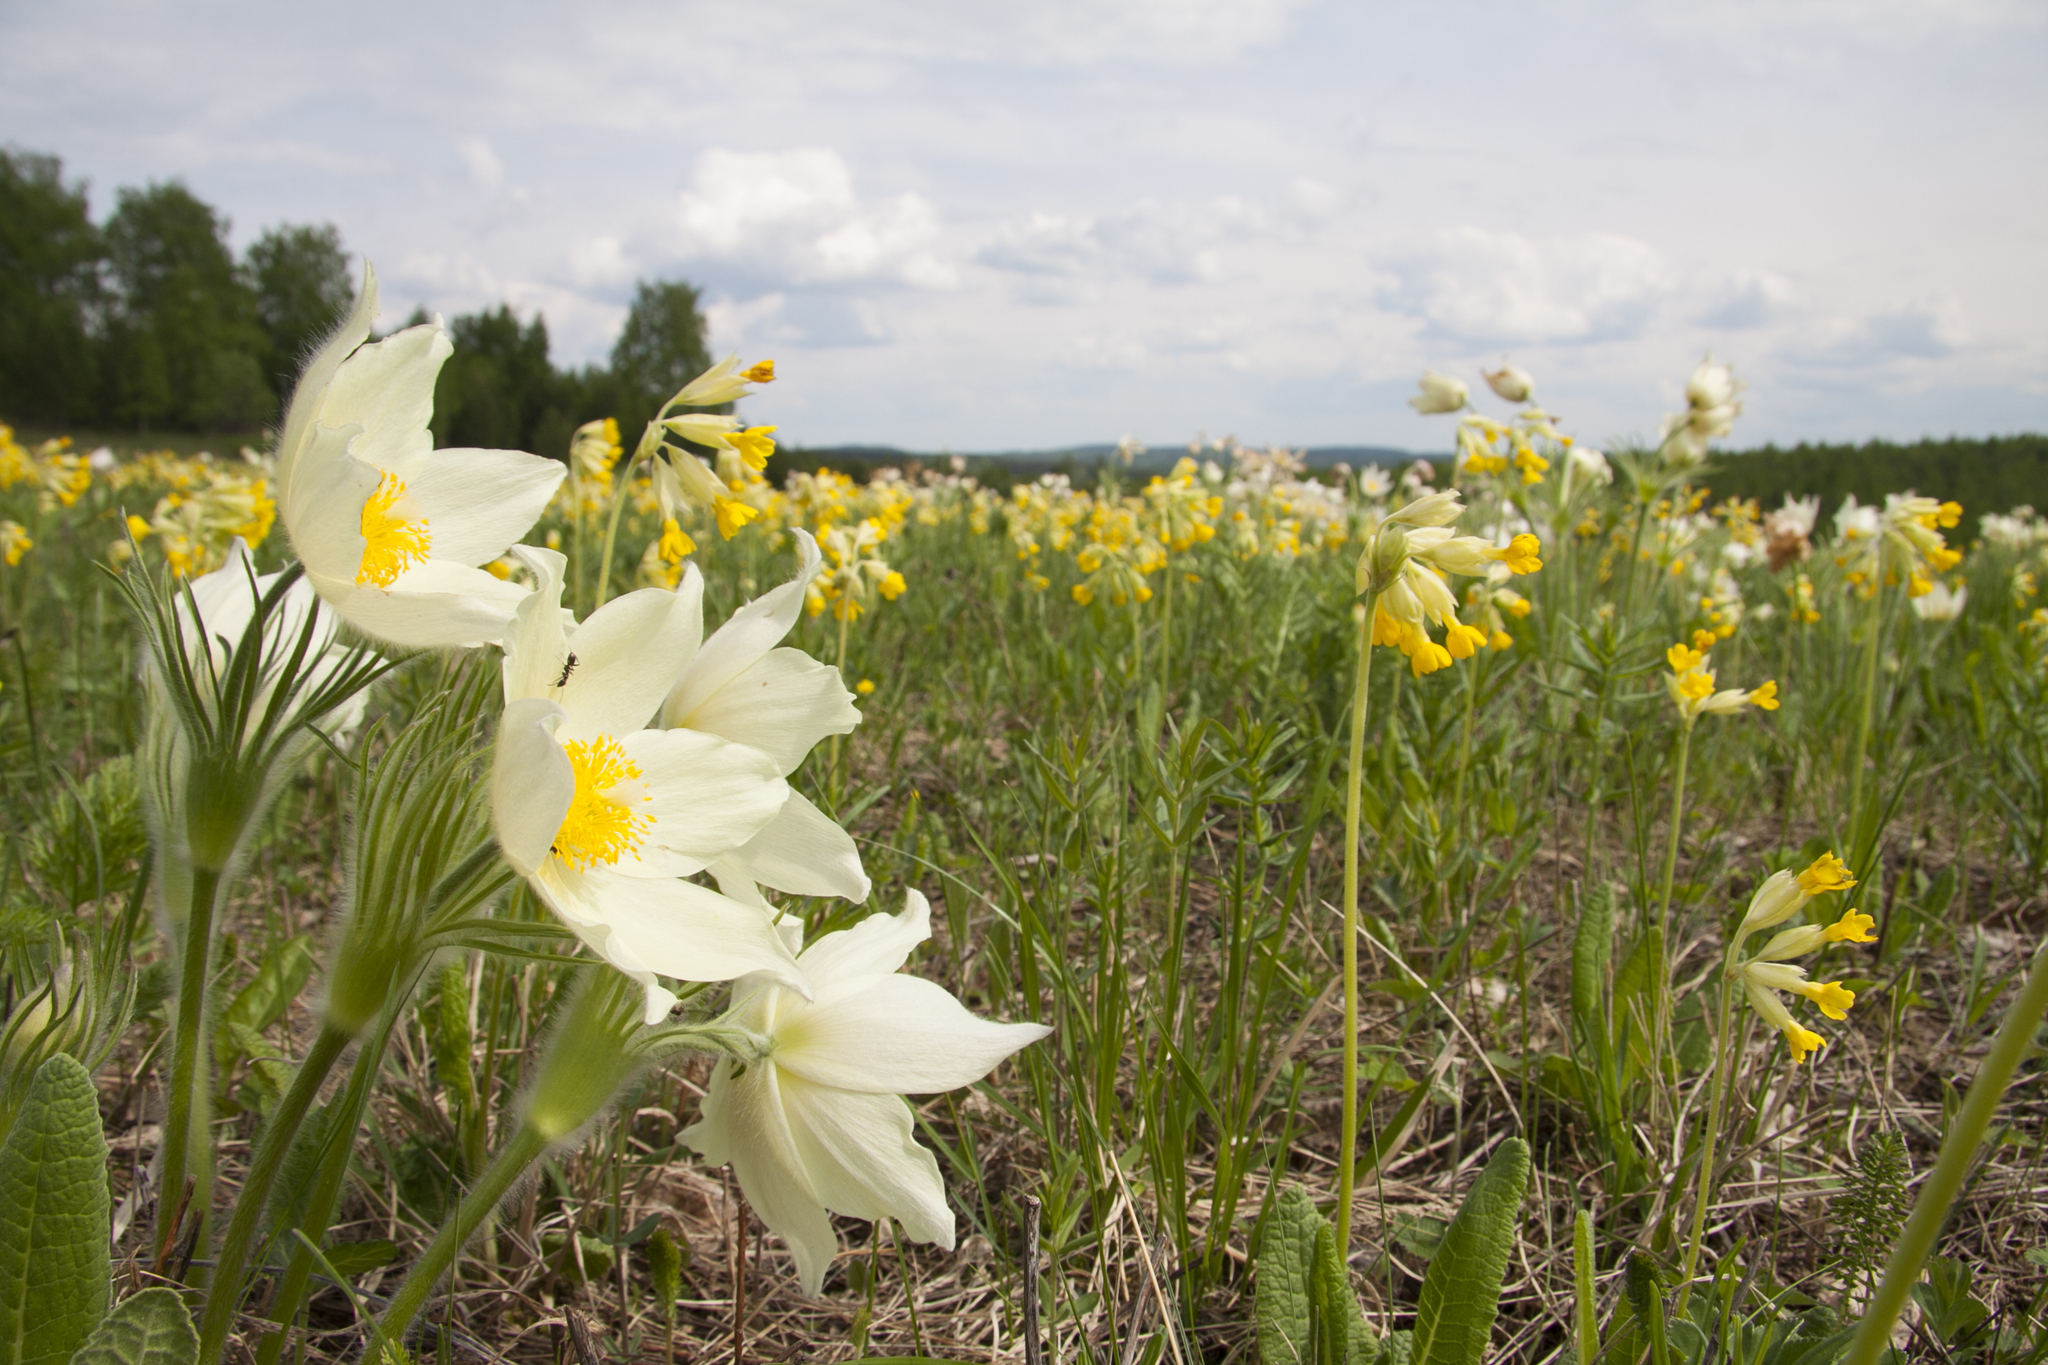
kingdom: Plantae
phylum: Tracheophyta
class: Magnoliopsida
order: Ranunculales
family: Ranunculaceae
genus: Pulsatilla
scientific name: Pulsatilla patens
